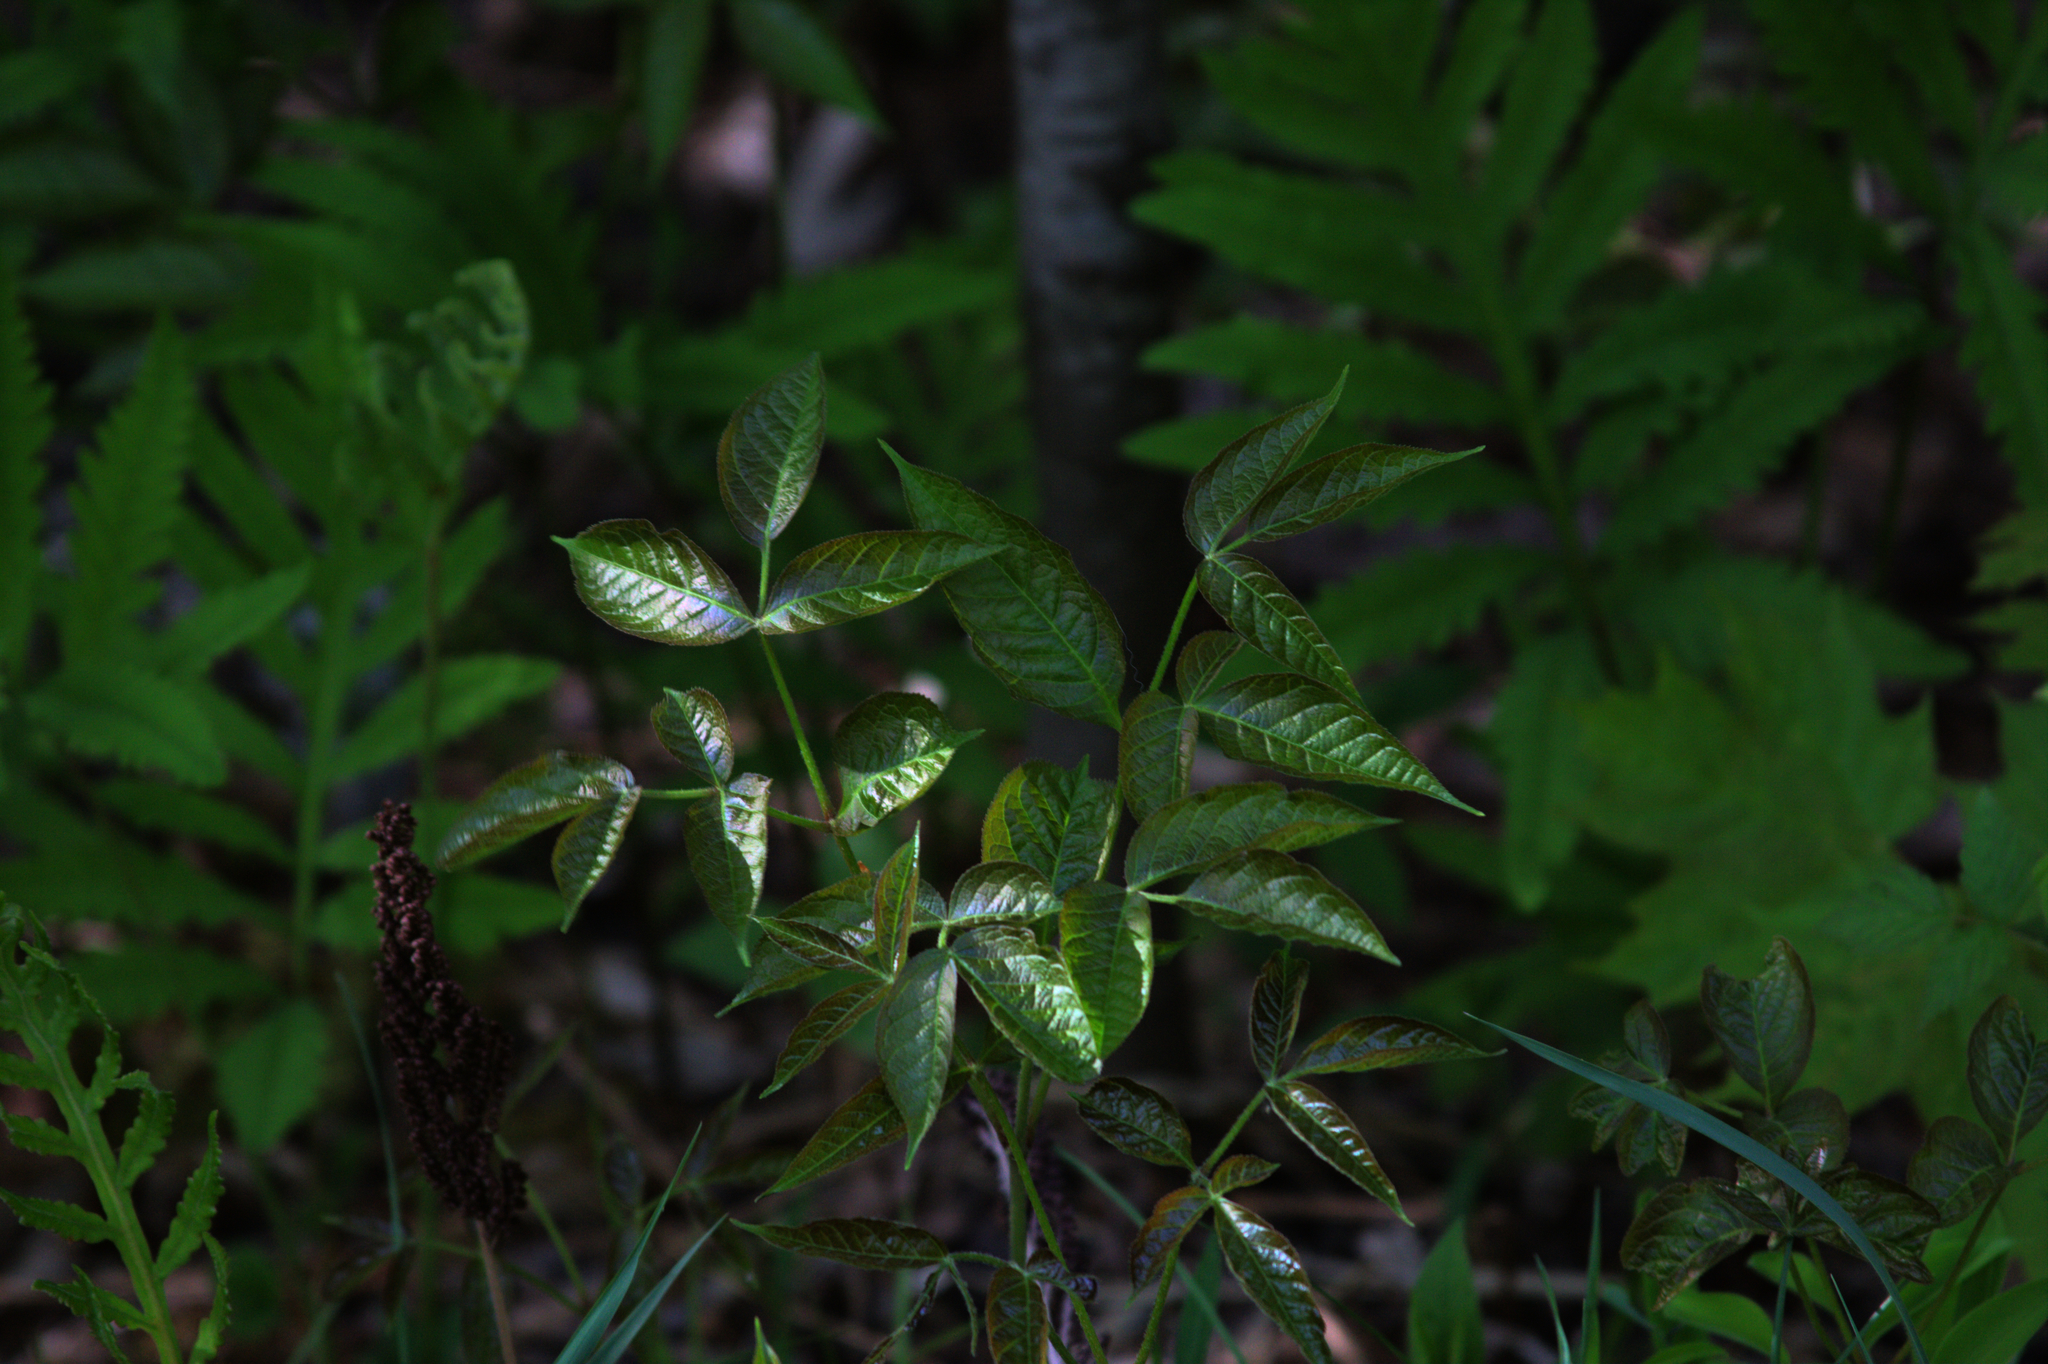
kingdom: Plantae
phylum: Tracheophyta
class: Magnoliopsida
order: Apiales
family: Araliaceae
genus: Aralia
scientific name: Aralia nudicaulis
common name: Wild sarsaparilla
